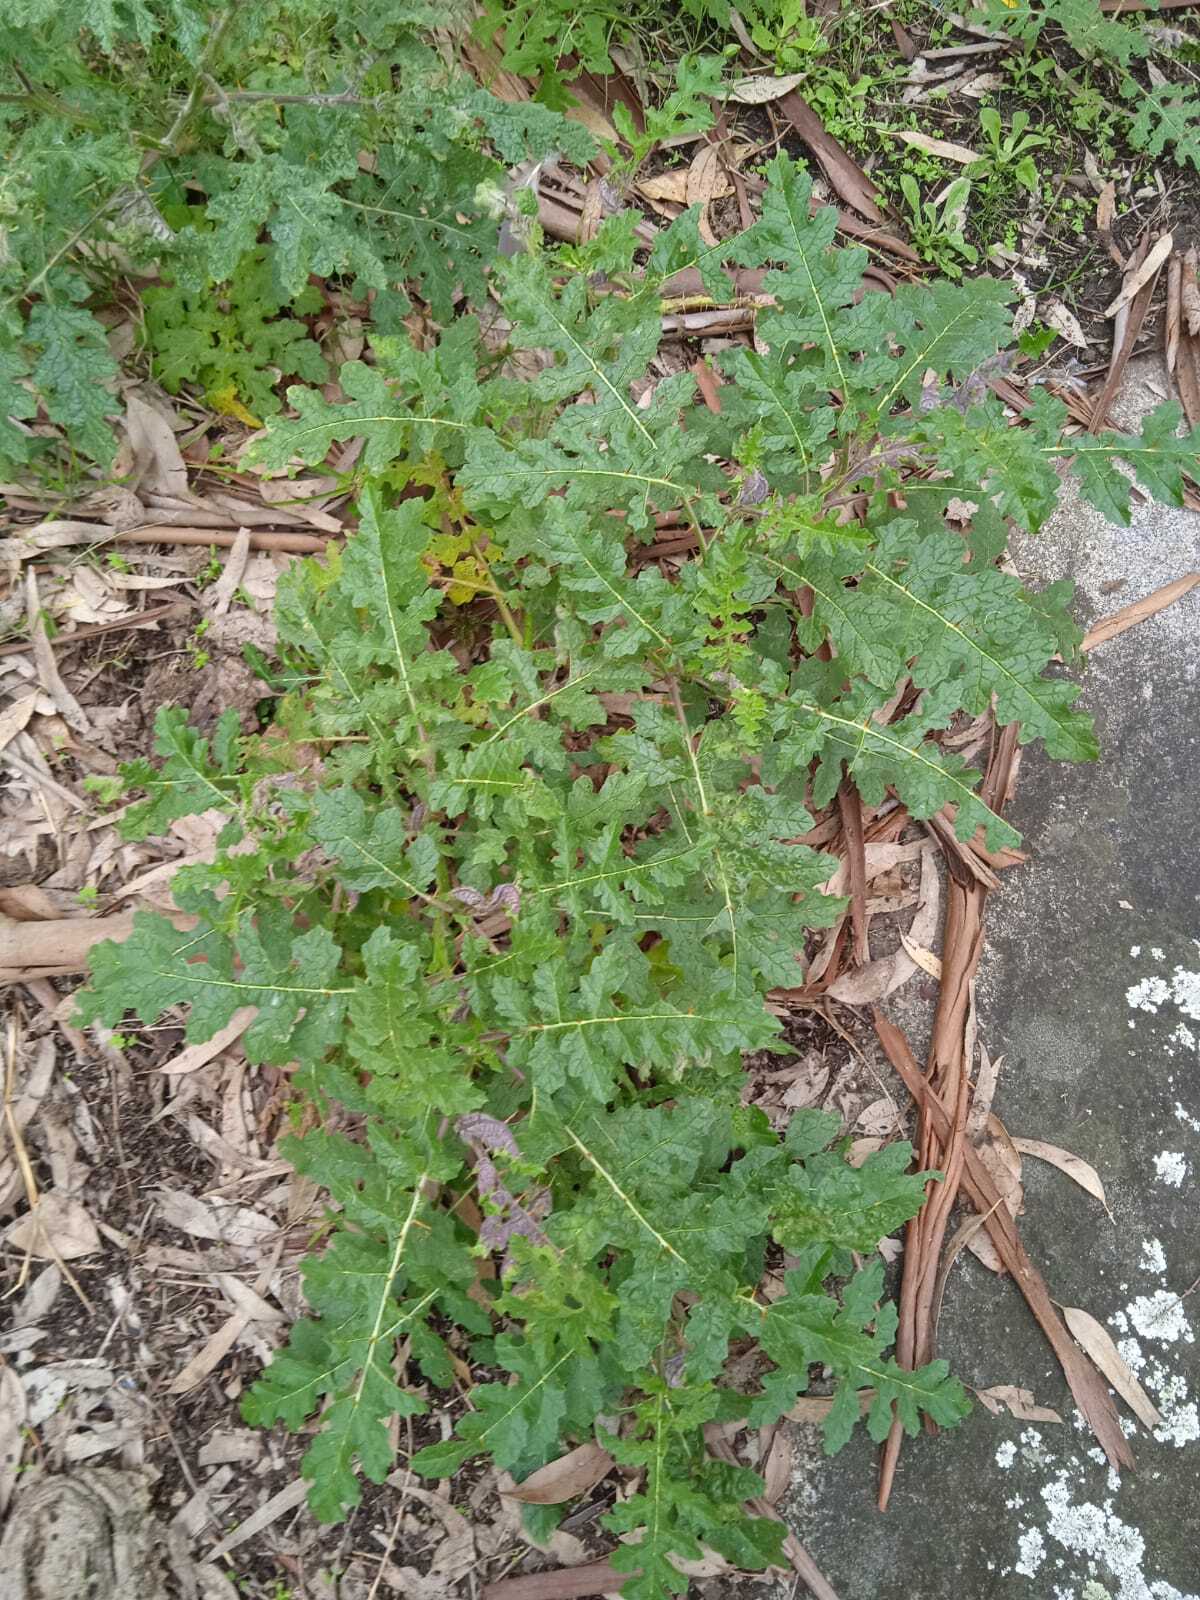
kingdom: Plantae
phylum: Tracheophyta
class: Magnoliopsida
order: Solanales
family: Solanaceae
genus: Solanum
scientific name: Solanum sisymbriifolium
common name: Red buffalo-bur
